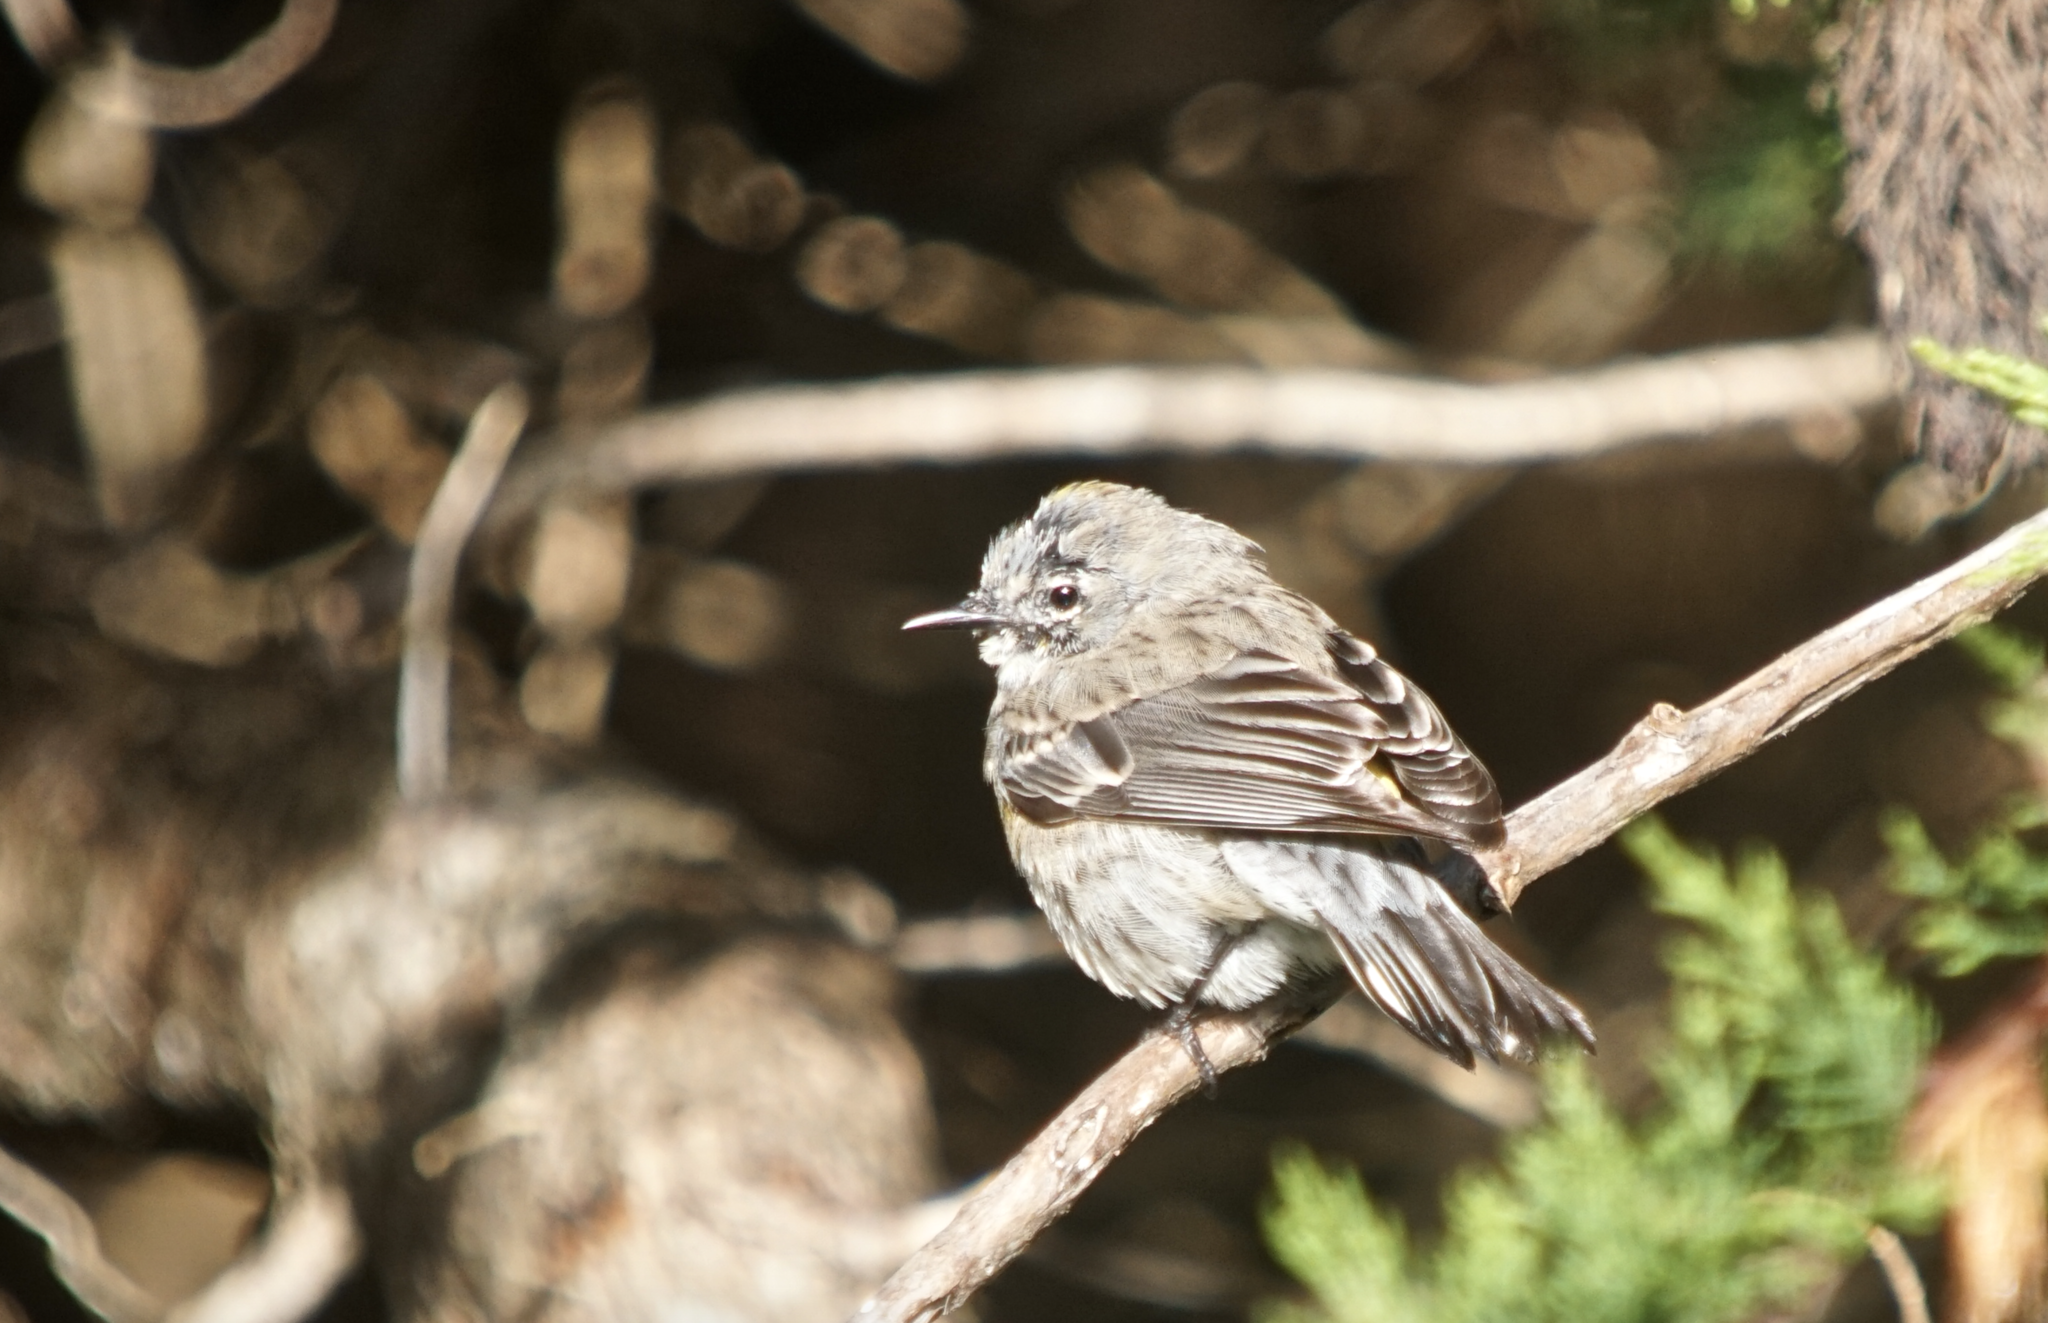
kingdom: Animalia
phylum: Chordata
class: Aves
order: Passeriformes
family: Parulidae
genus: Setophaga
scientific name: Setophaga coronata
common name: Myrtle warbler
